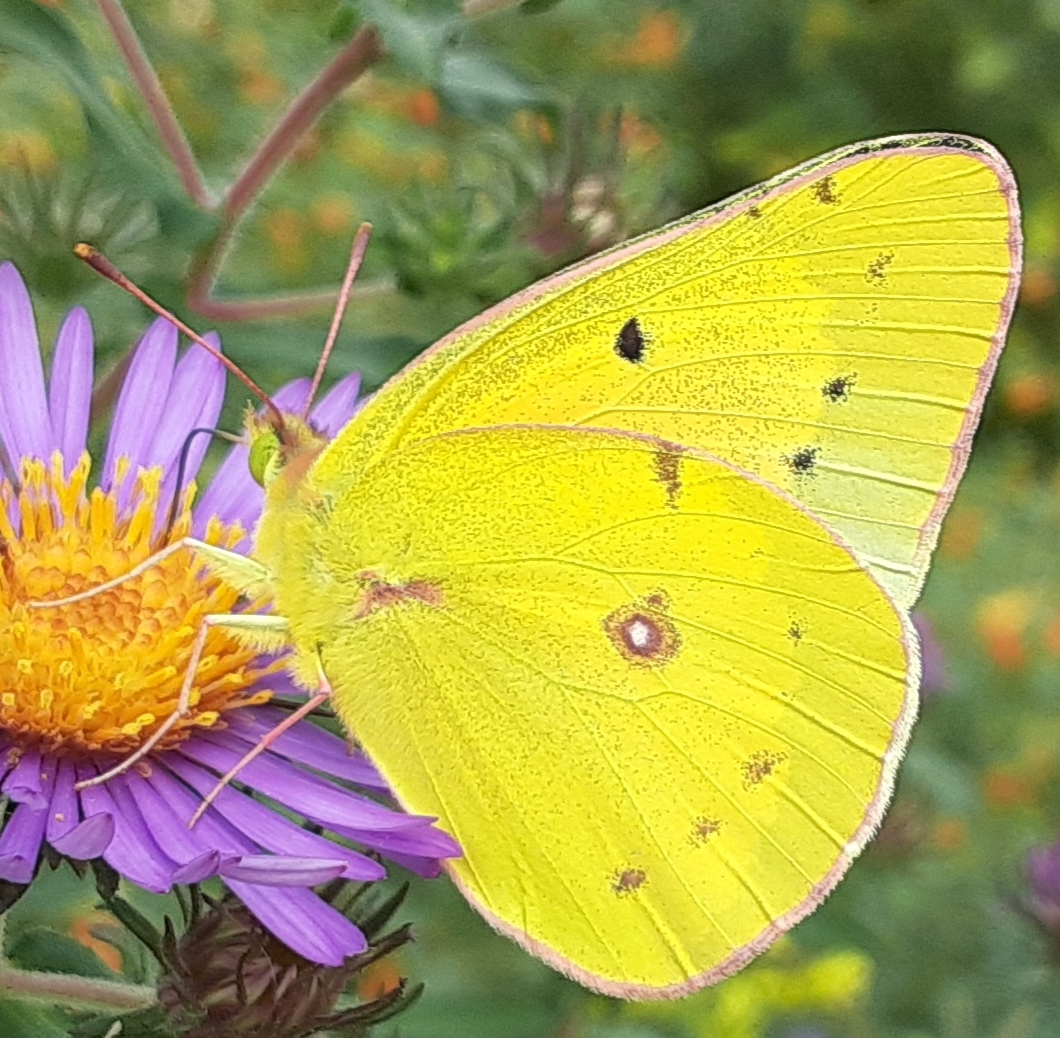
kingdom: Animalia
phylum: Arthropoda
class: Insecta
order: Lepidoptera
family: Pieridae
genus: Colias
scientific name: Colias eurytheme
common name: Alfalfa butterfly
